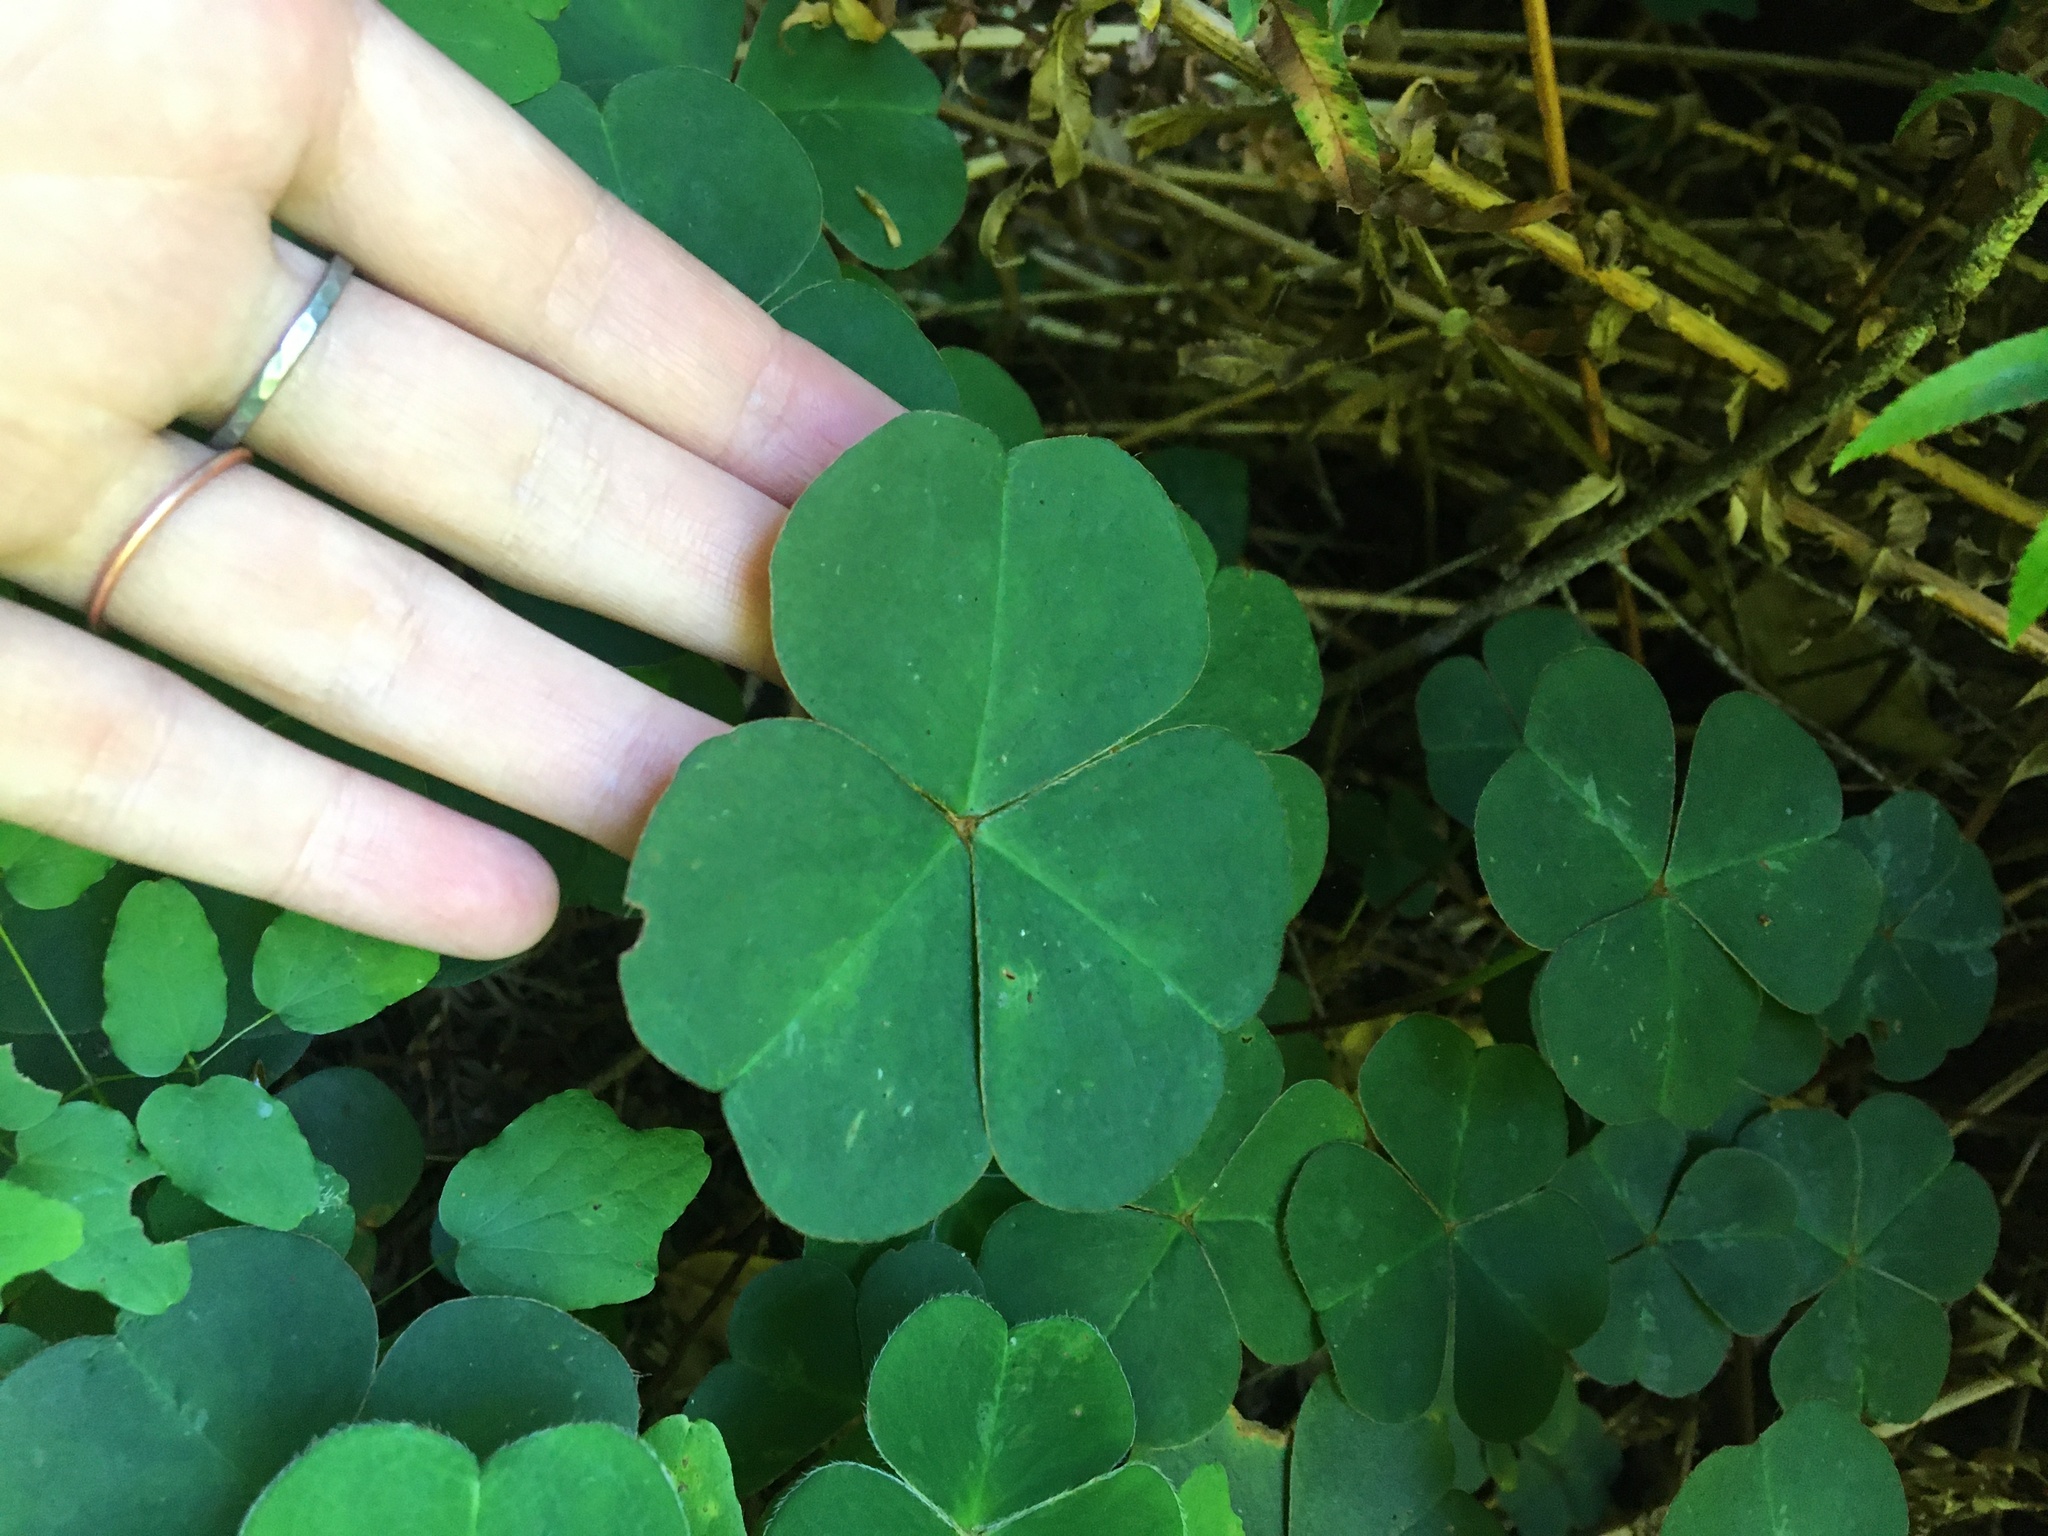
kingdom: Plantae
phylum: Tracheophyta
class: Magnoliopsida
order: Oxalidales
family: Oxalidaceae
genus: Oxalis
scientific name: Oxalis oregana
